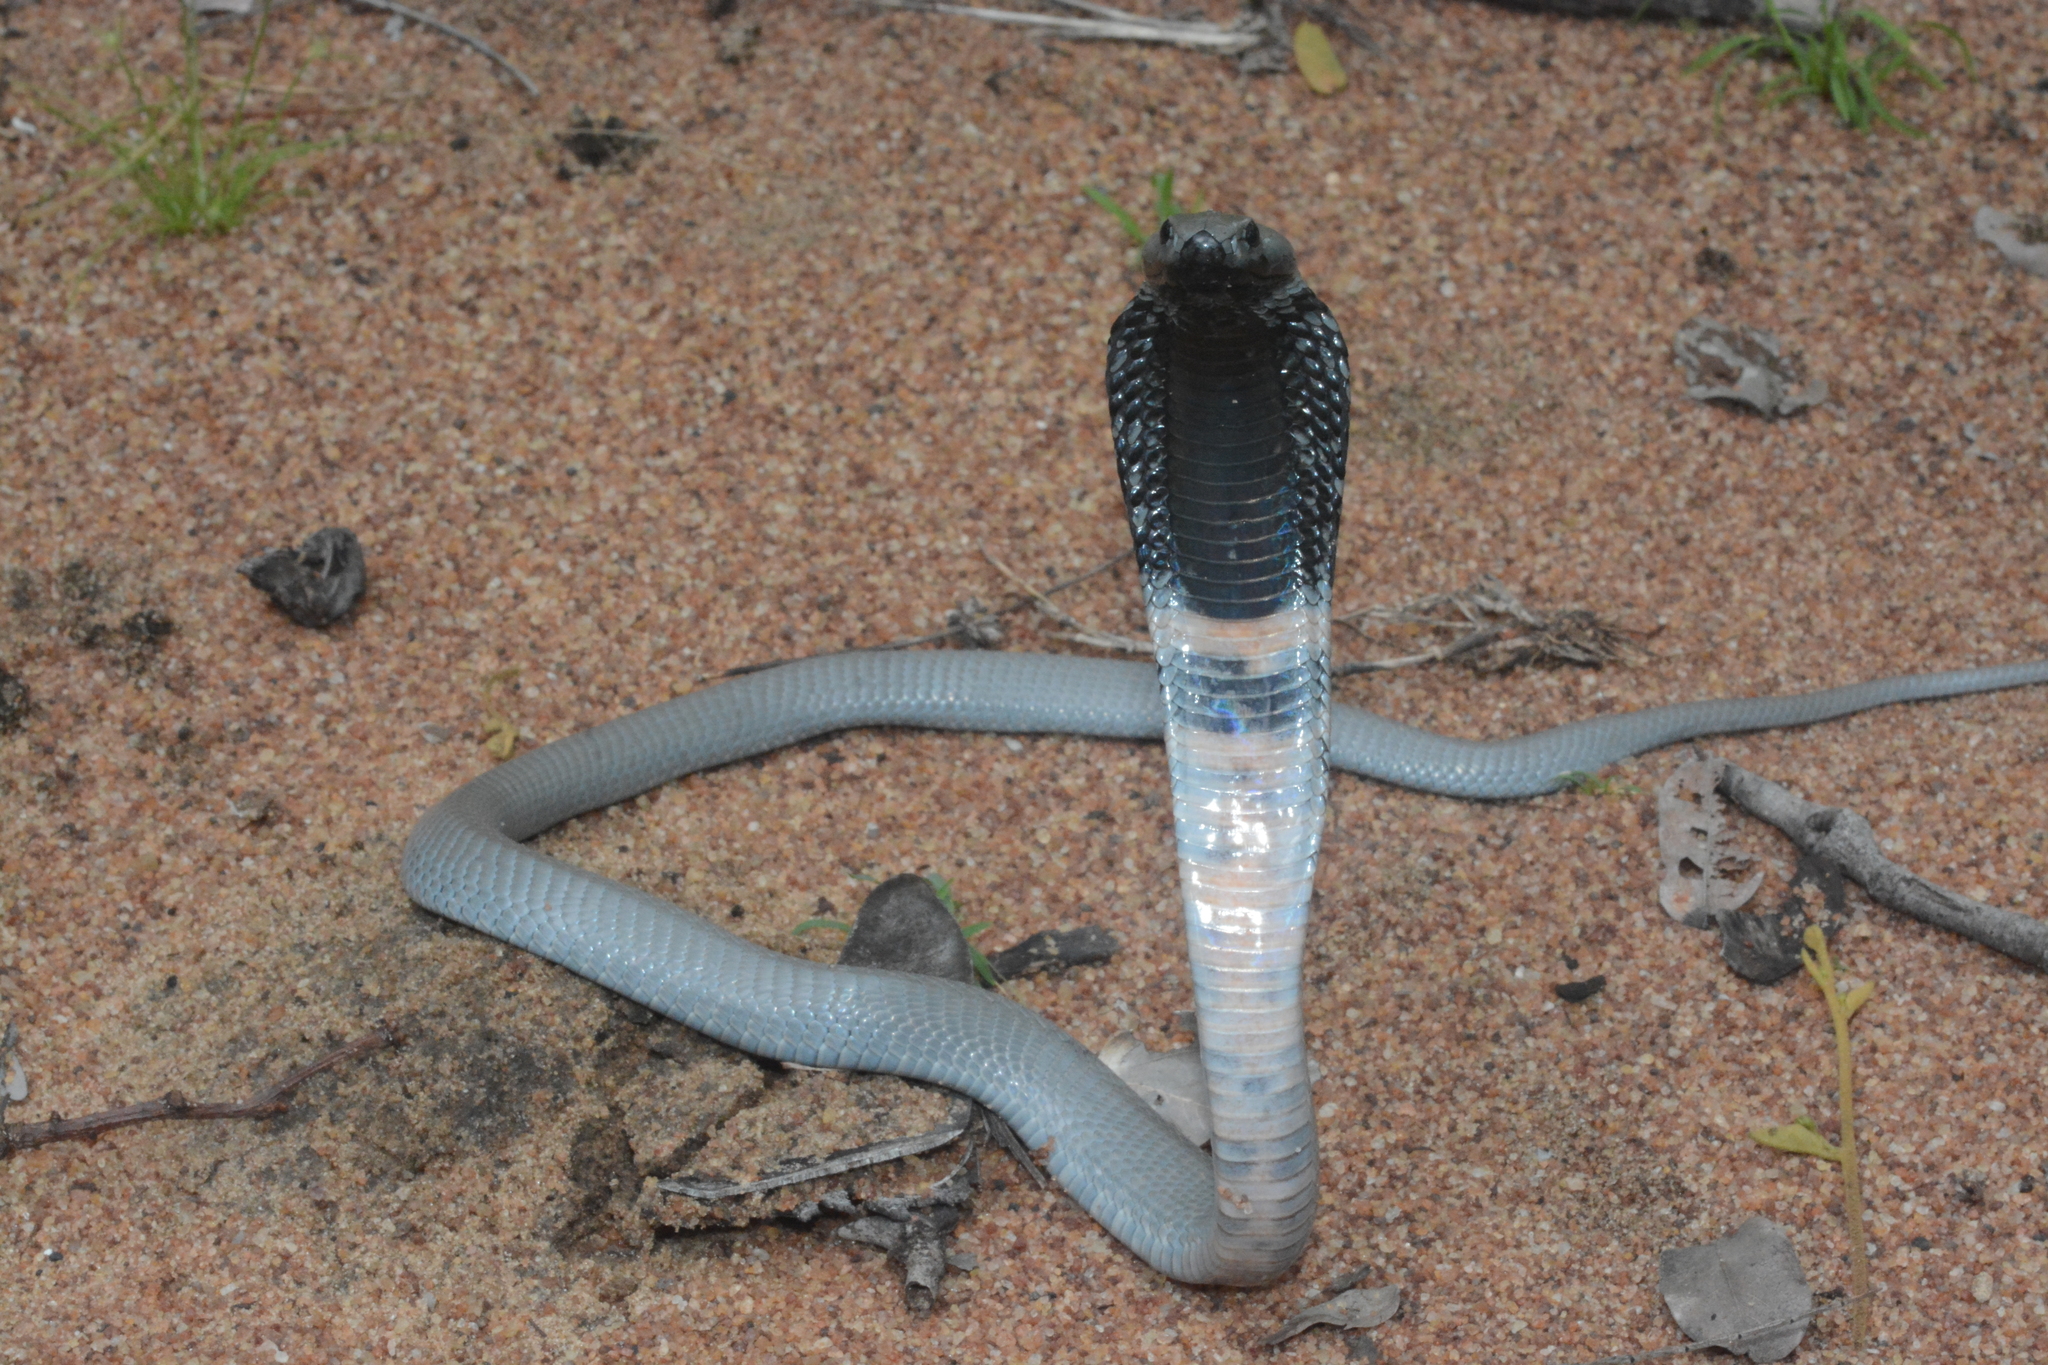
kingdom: Animalia
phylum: Chordata
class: Squamata
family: Elapidae
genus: Naja
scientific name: Naja nigricollis
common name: Black-necked spitting cobra
